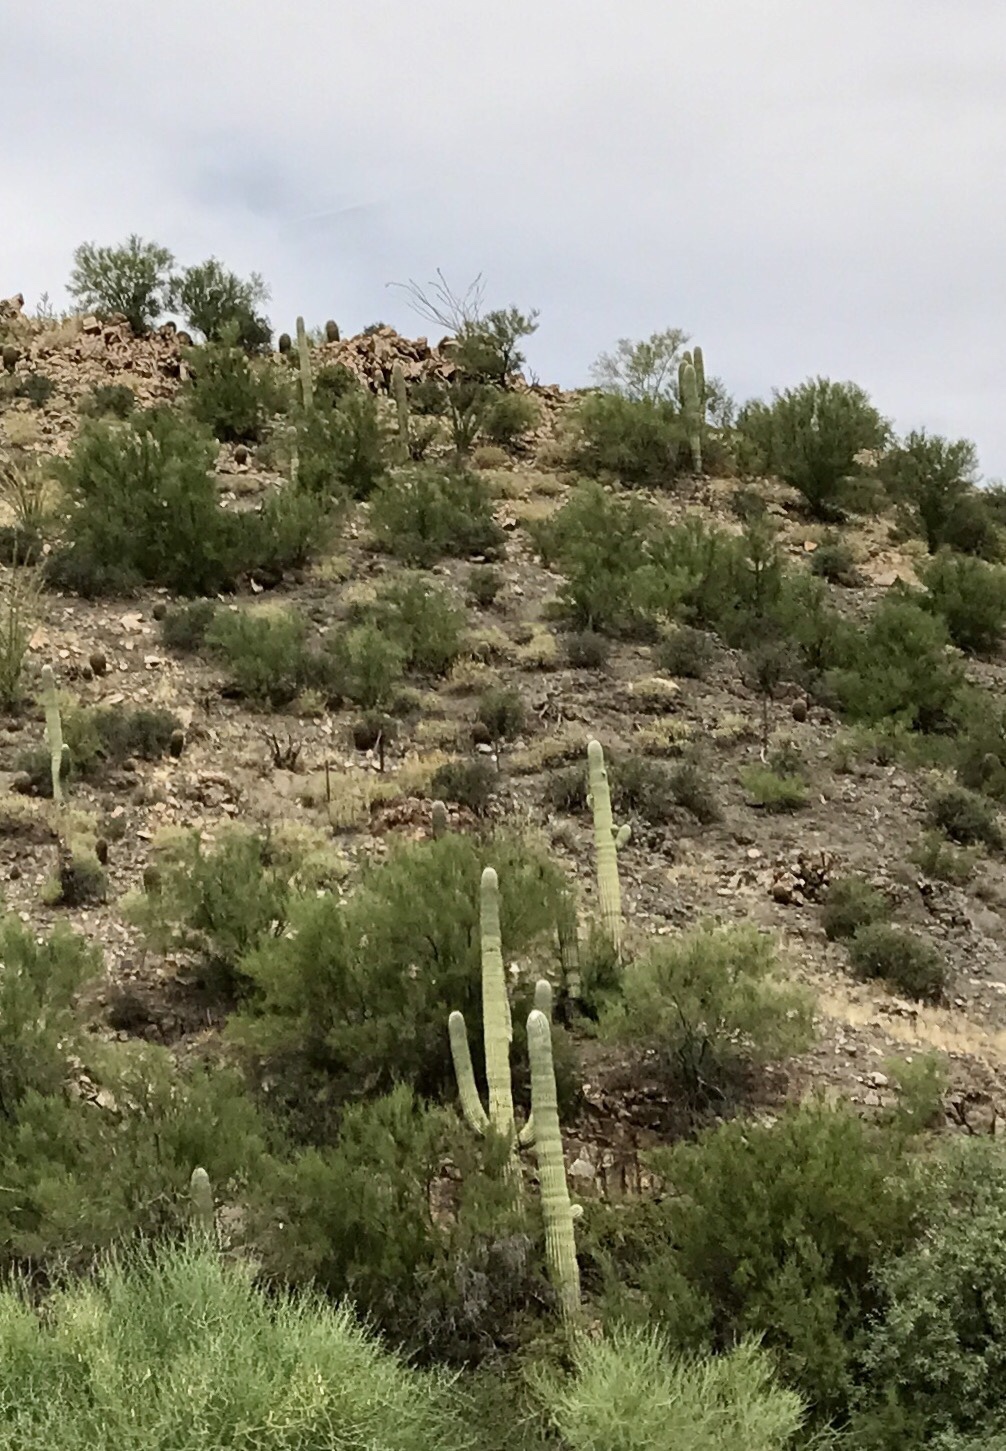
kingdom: Plantae
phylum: Tracheophyta
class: Magnoliopsida
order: Caryophyllales
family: Cactaceae
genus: Carnegiea
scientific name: Carnegiea gigantea
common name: Saguaro
